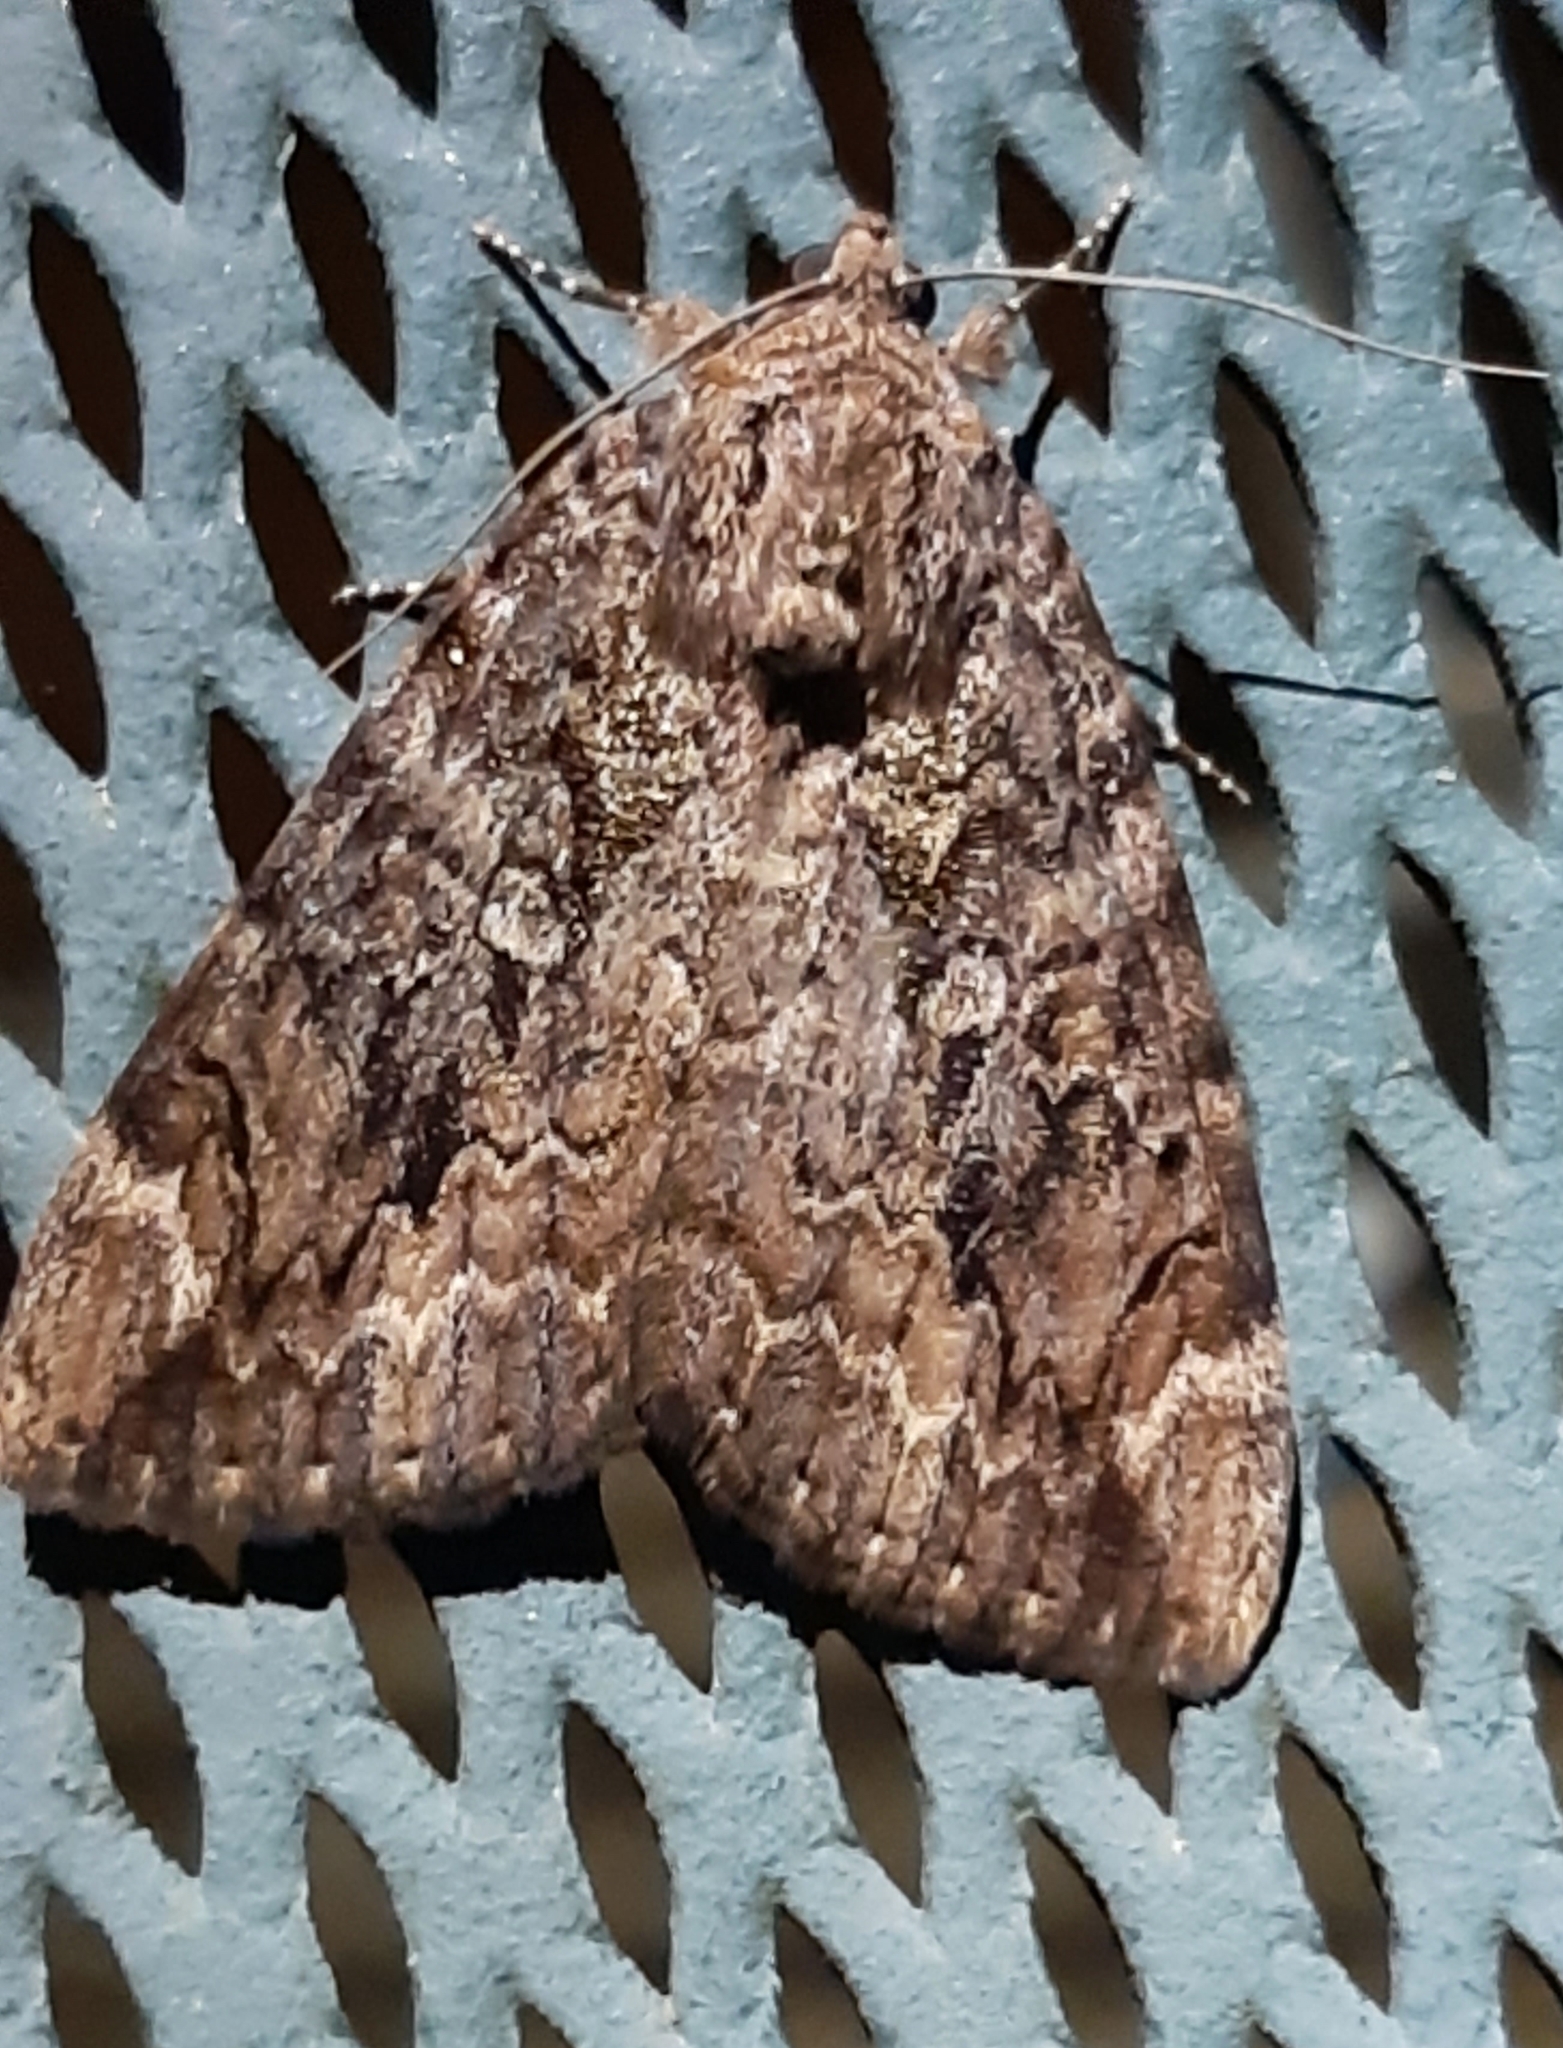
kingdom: Animalia
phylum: Arthropoda
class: Insecta
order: Lepidoptera
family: Erebidae
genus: Catocala
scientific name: Catocala innubens
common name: Betrothed underwing
